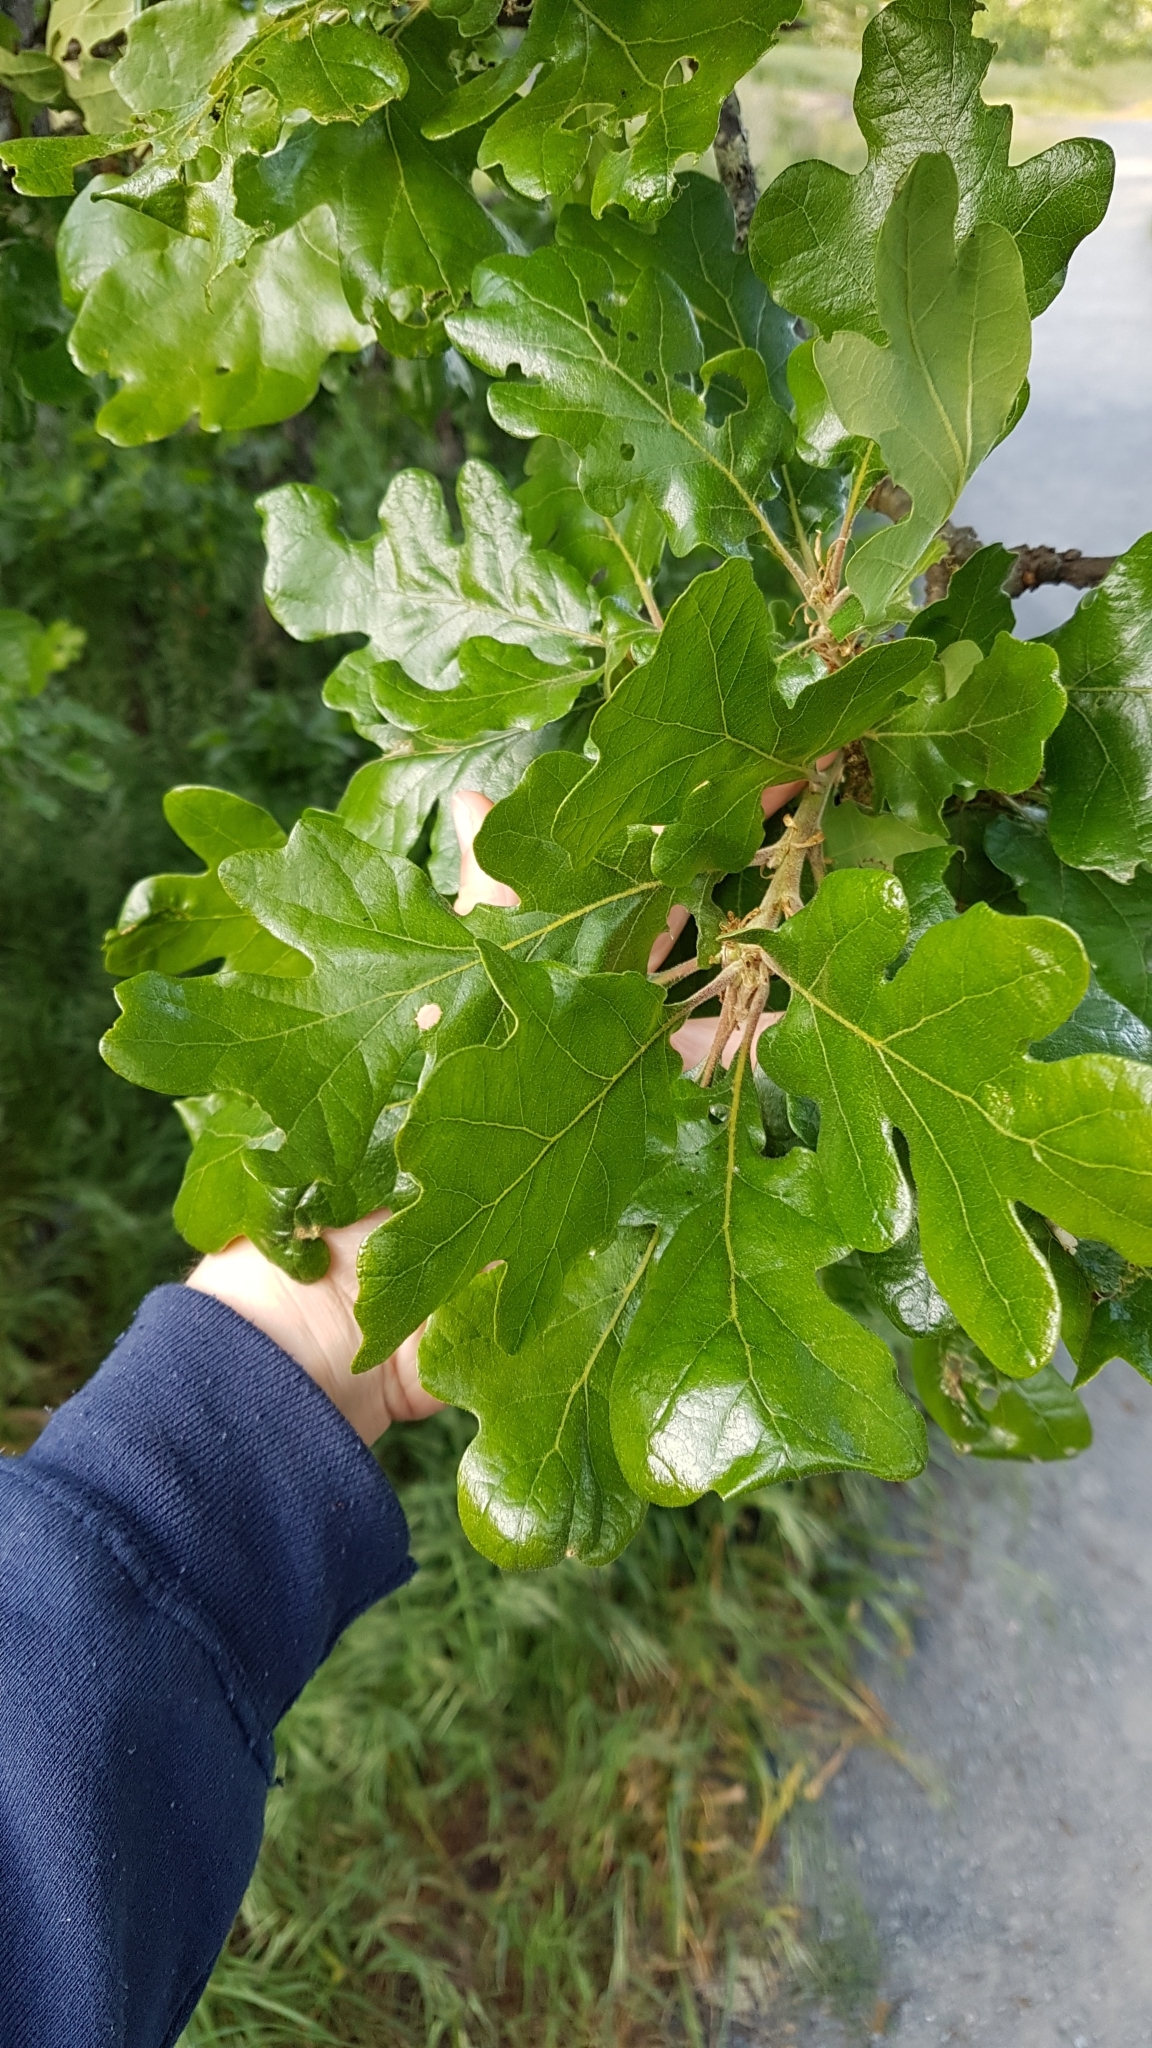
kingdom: Plantae
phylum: Tracheophyta
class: Magnoliopsida
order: Fagales
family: Fagaceae
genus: Quercus
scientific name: Quercus garryana
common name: Garry oak
